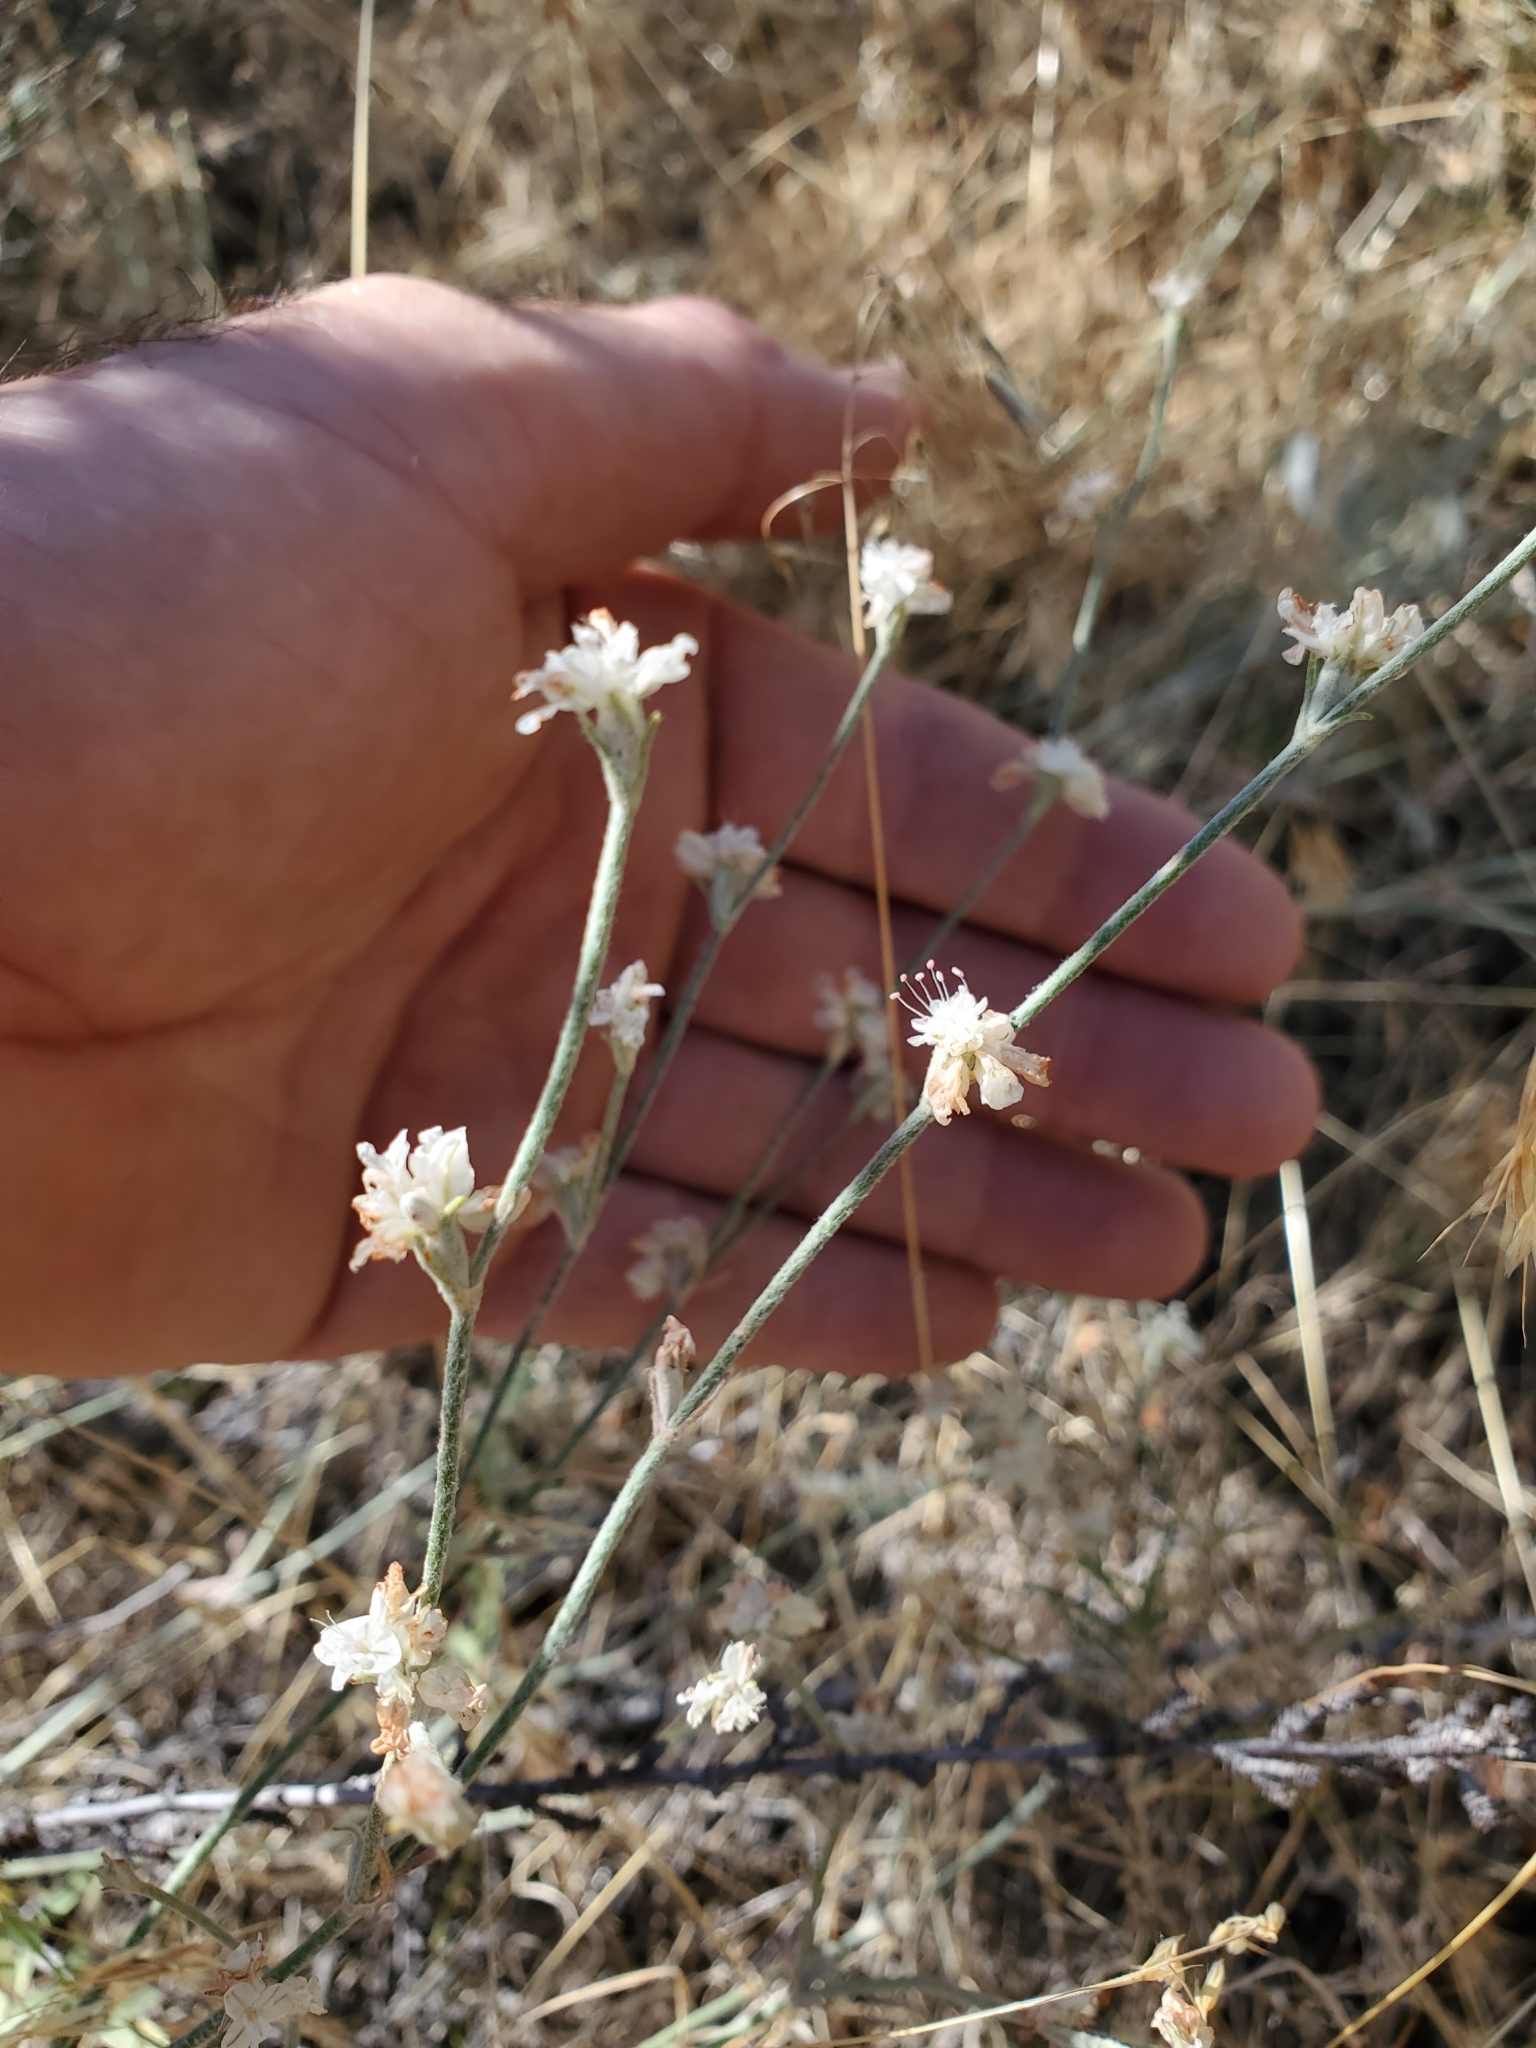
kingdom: Plantae
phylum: Tracheophyta
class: Magnoliopsida
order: Caryophyllales
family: Polygonaceae
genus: Eriogonum
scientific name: Eriogonum niveum
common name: Snow wild buckwheat
